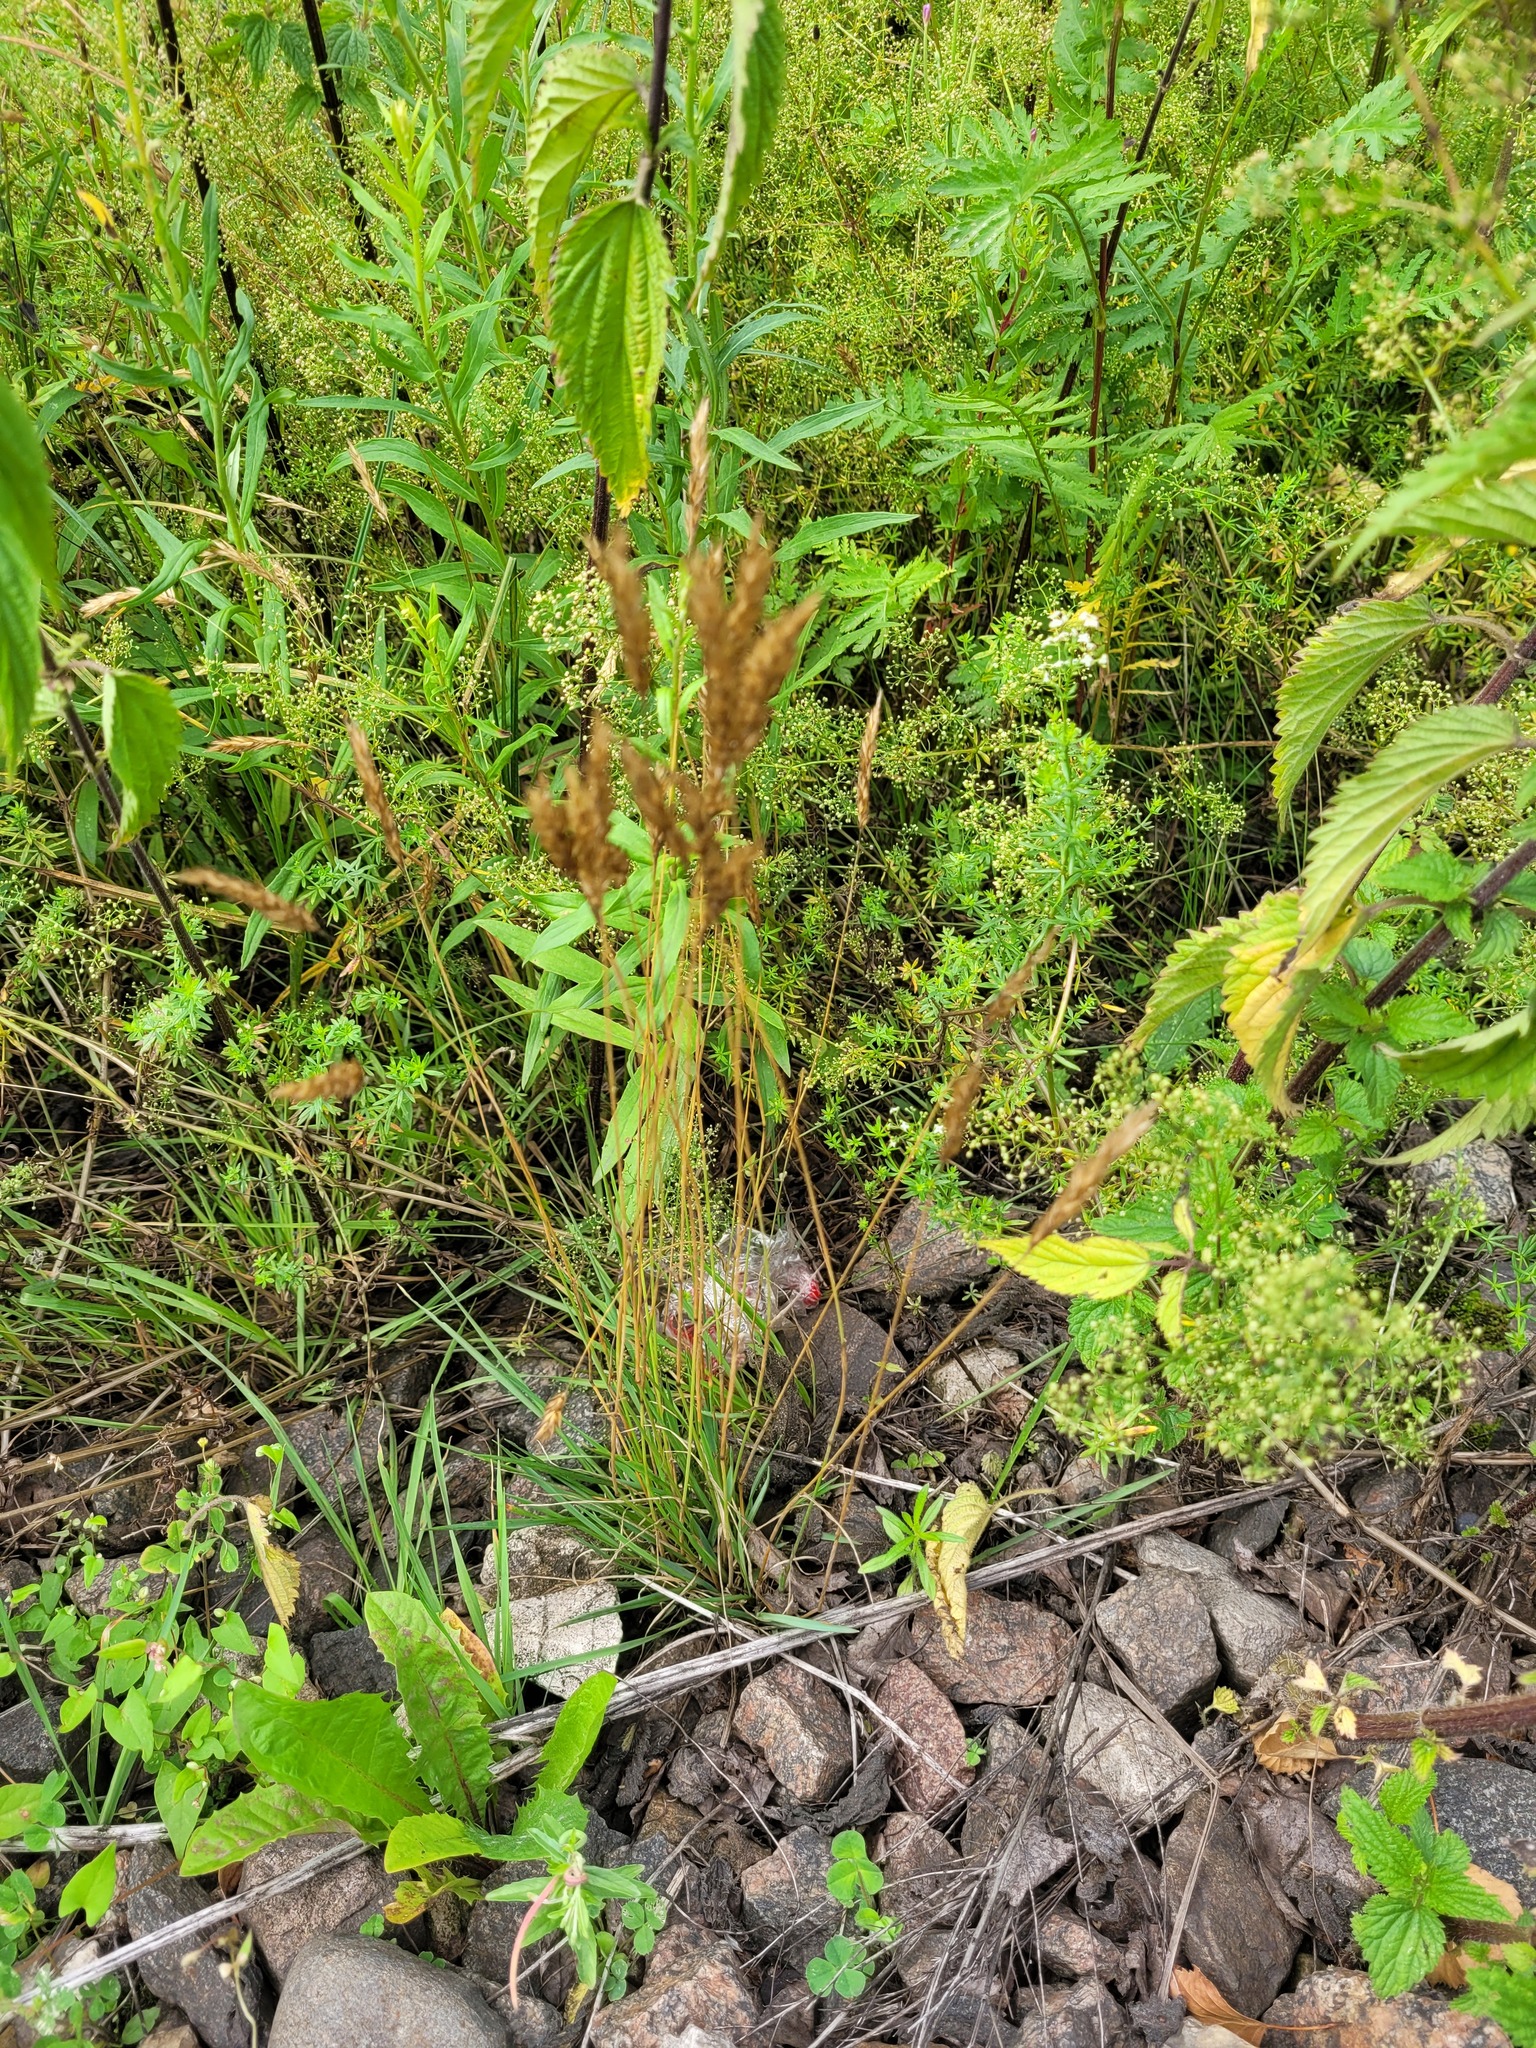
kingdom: Plantae
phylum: Tracheophyta
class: Liliopsida
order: Poales
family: Poaceae
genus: Anthoxanthum
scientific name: Anthoxanthum odoratum
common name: Sweet vernalgrass
